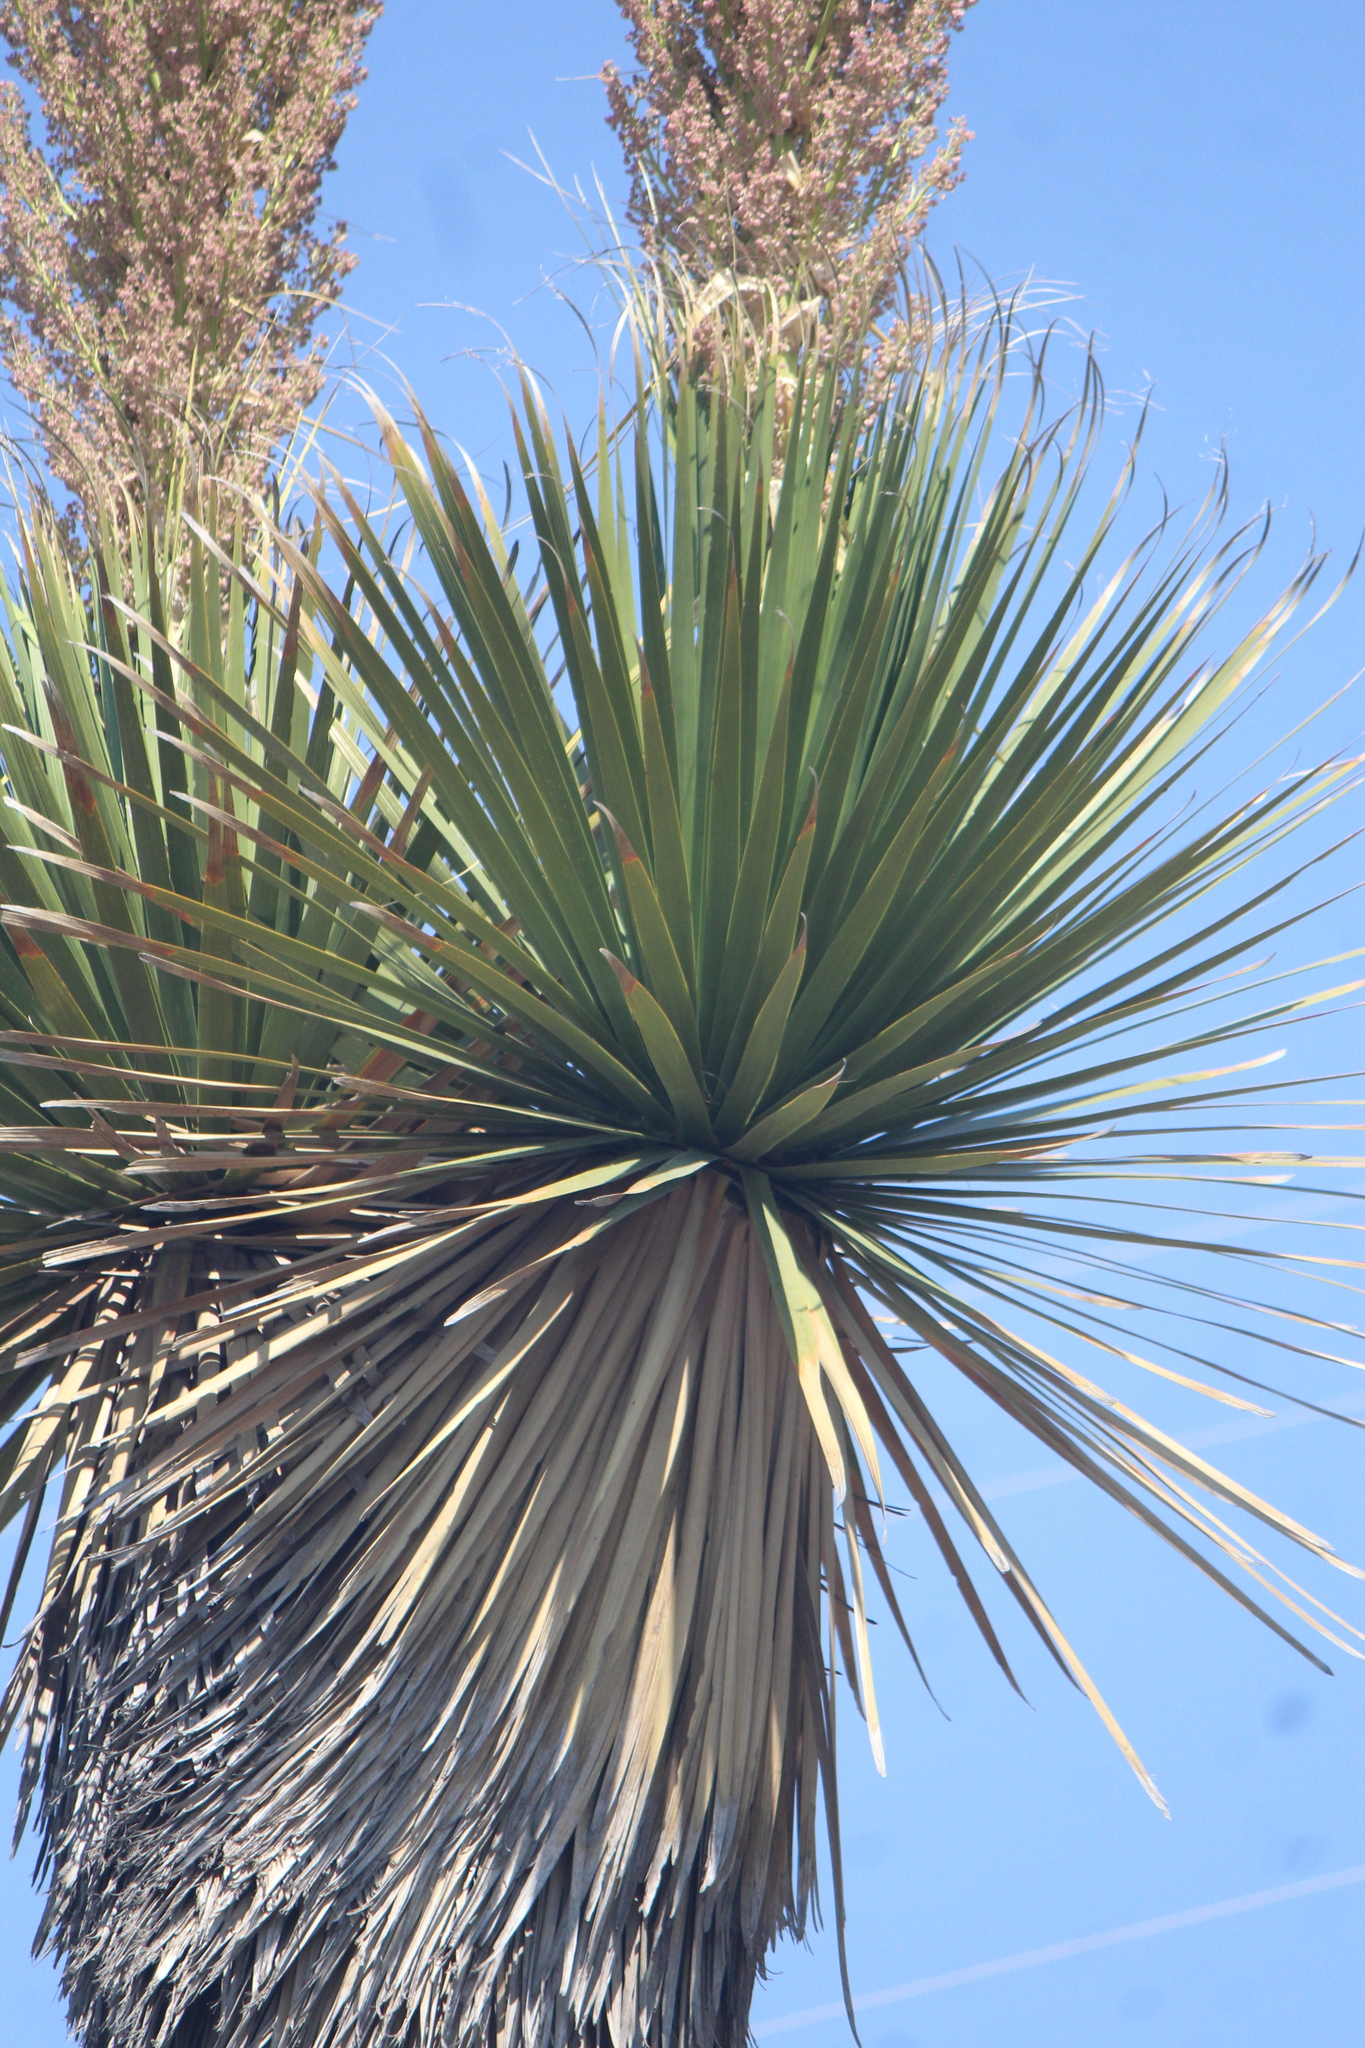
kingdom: Plantae
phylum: Tracheophyta
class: Liliopsida
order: Asparagales
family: Asparagaceae
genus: Nolina
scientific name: Nolina parviflora
